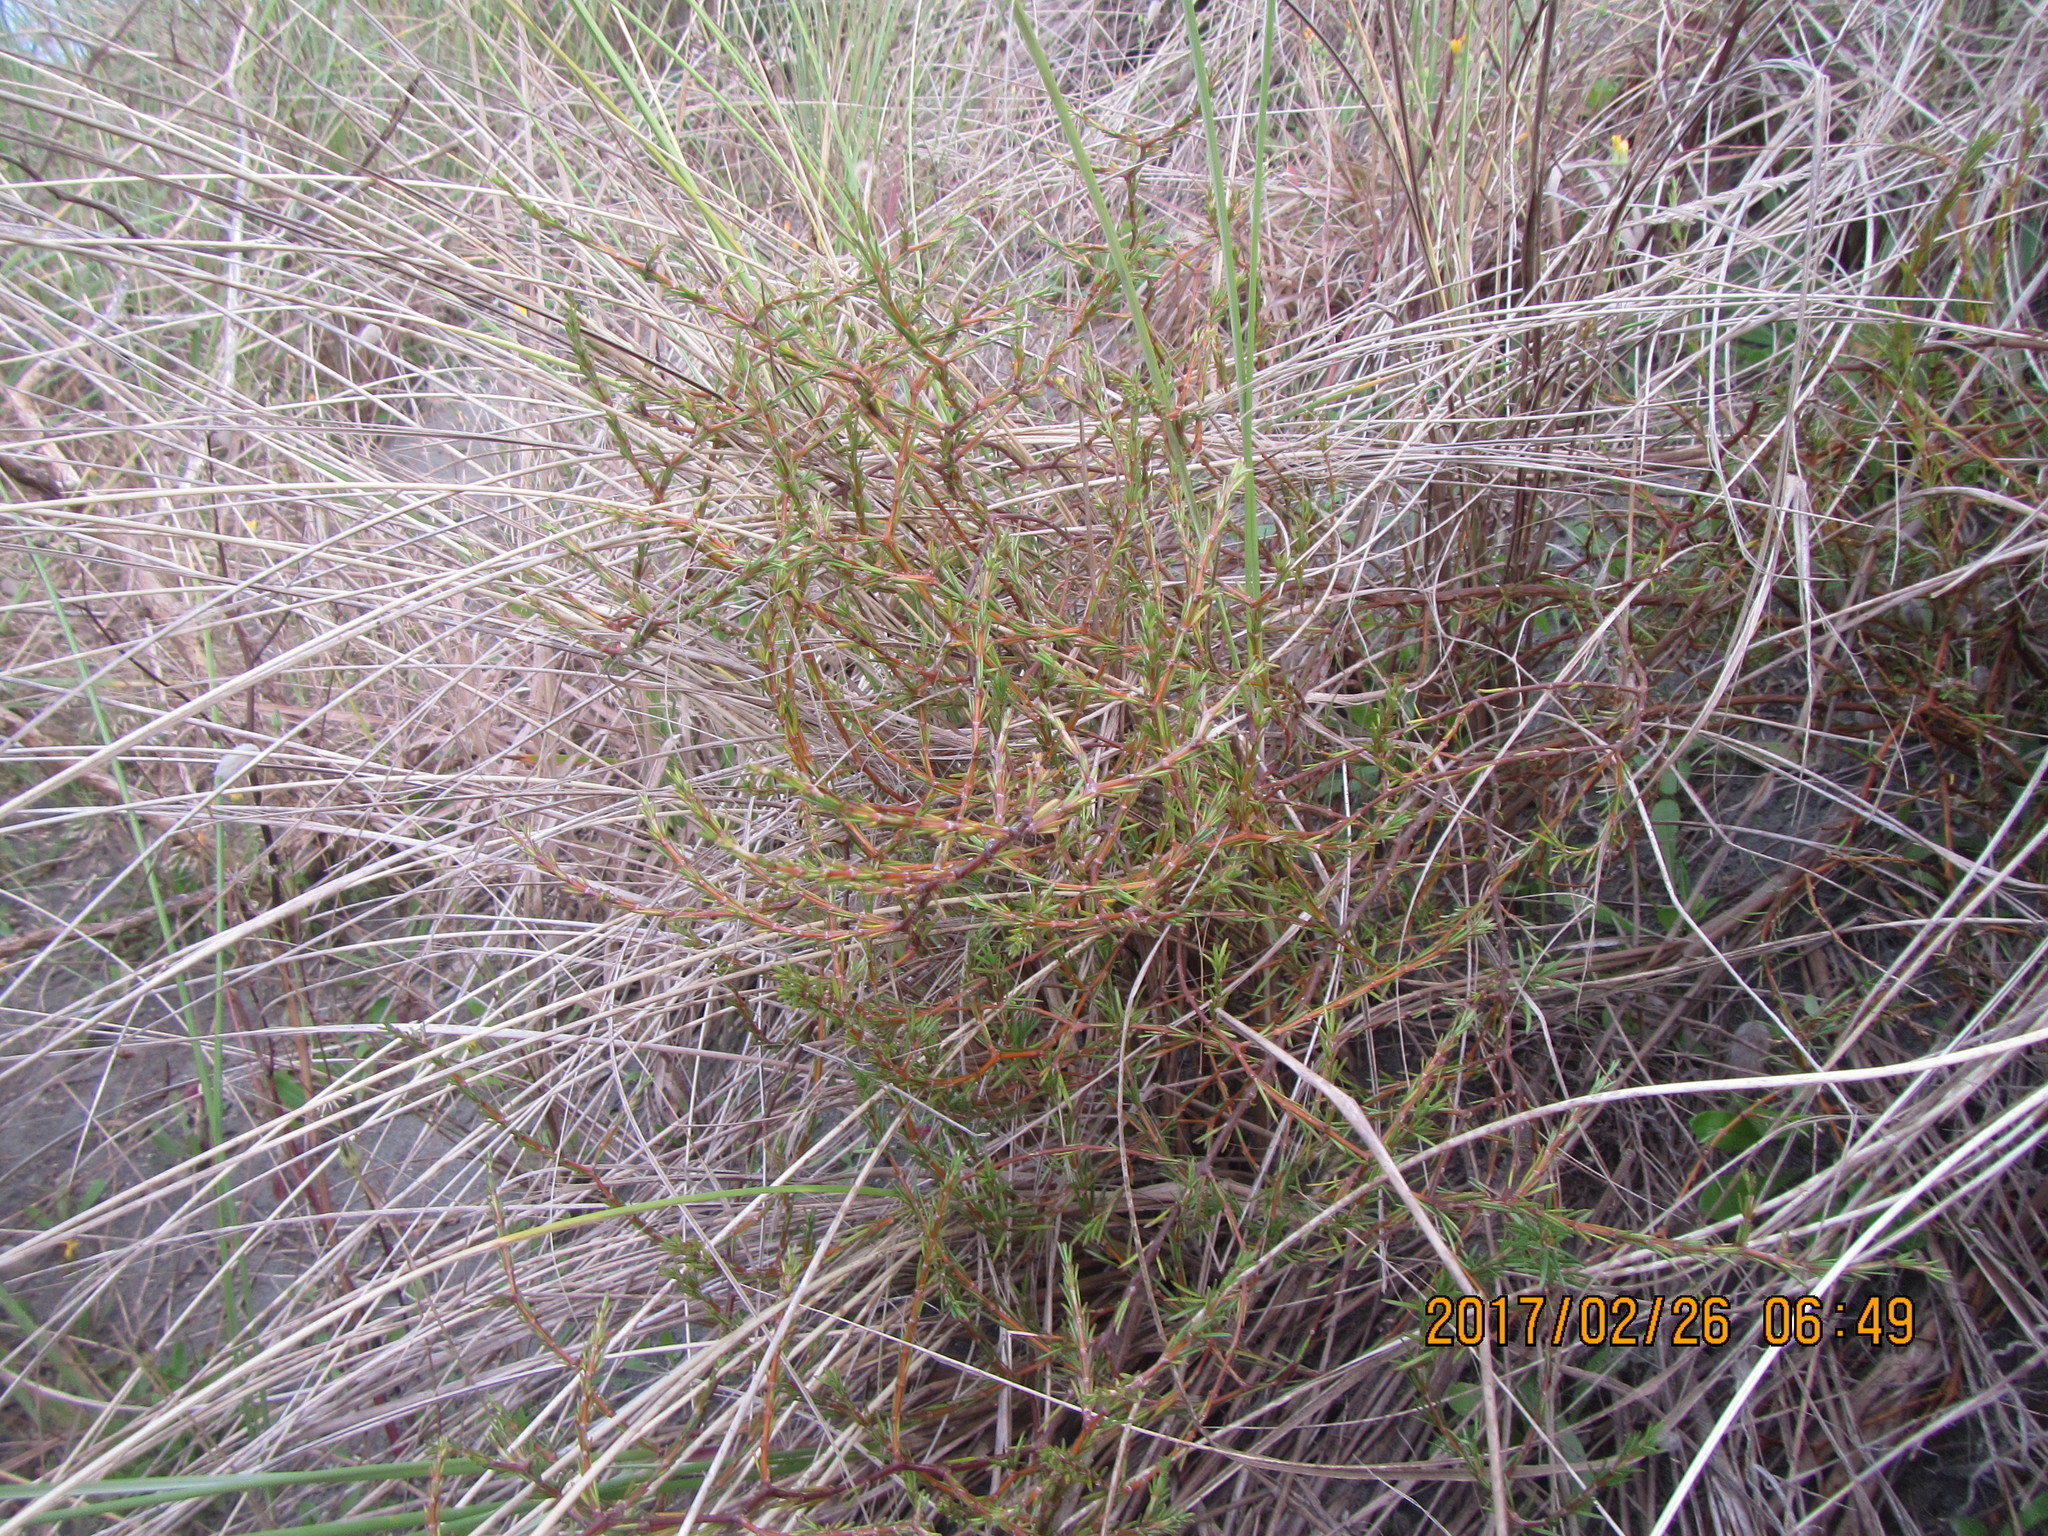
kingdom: Plantae
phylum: Tracheophyta
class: Magnoliopsida
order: Gentianales
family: Rubiaceae
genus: Coprosma
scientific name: Coprosma acerosa
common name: Sand coprosma
